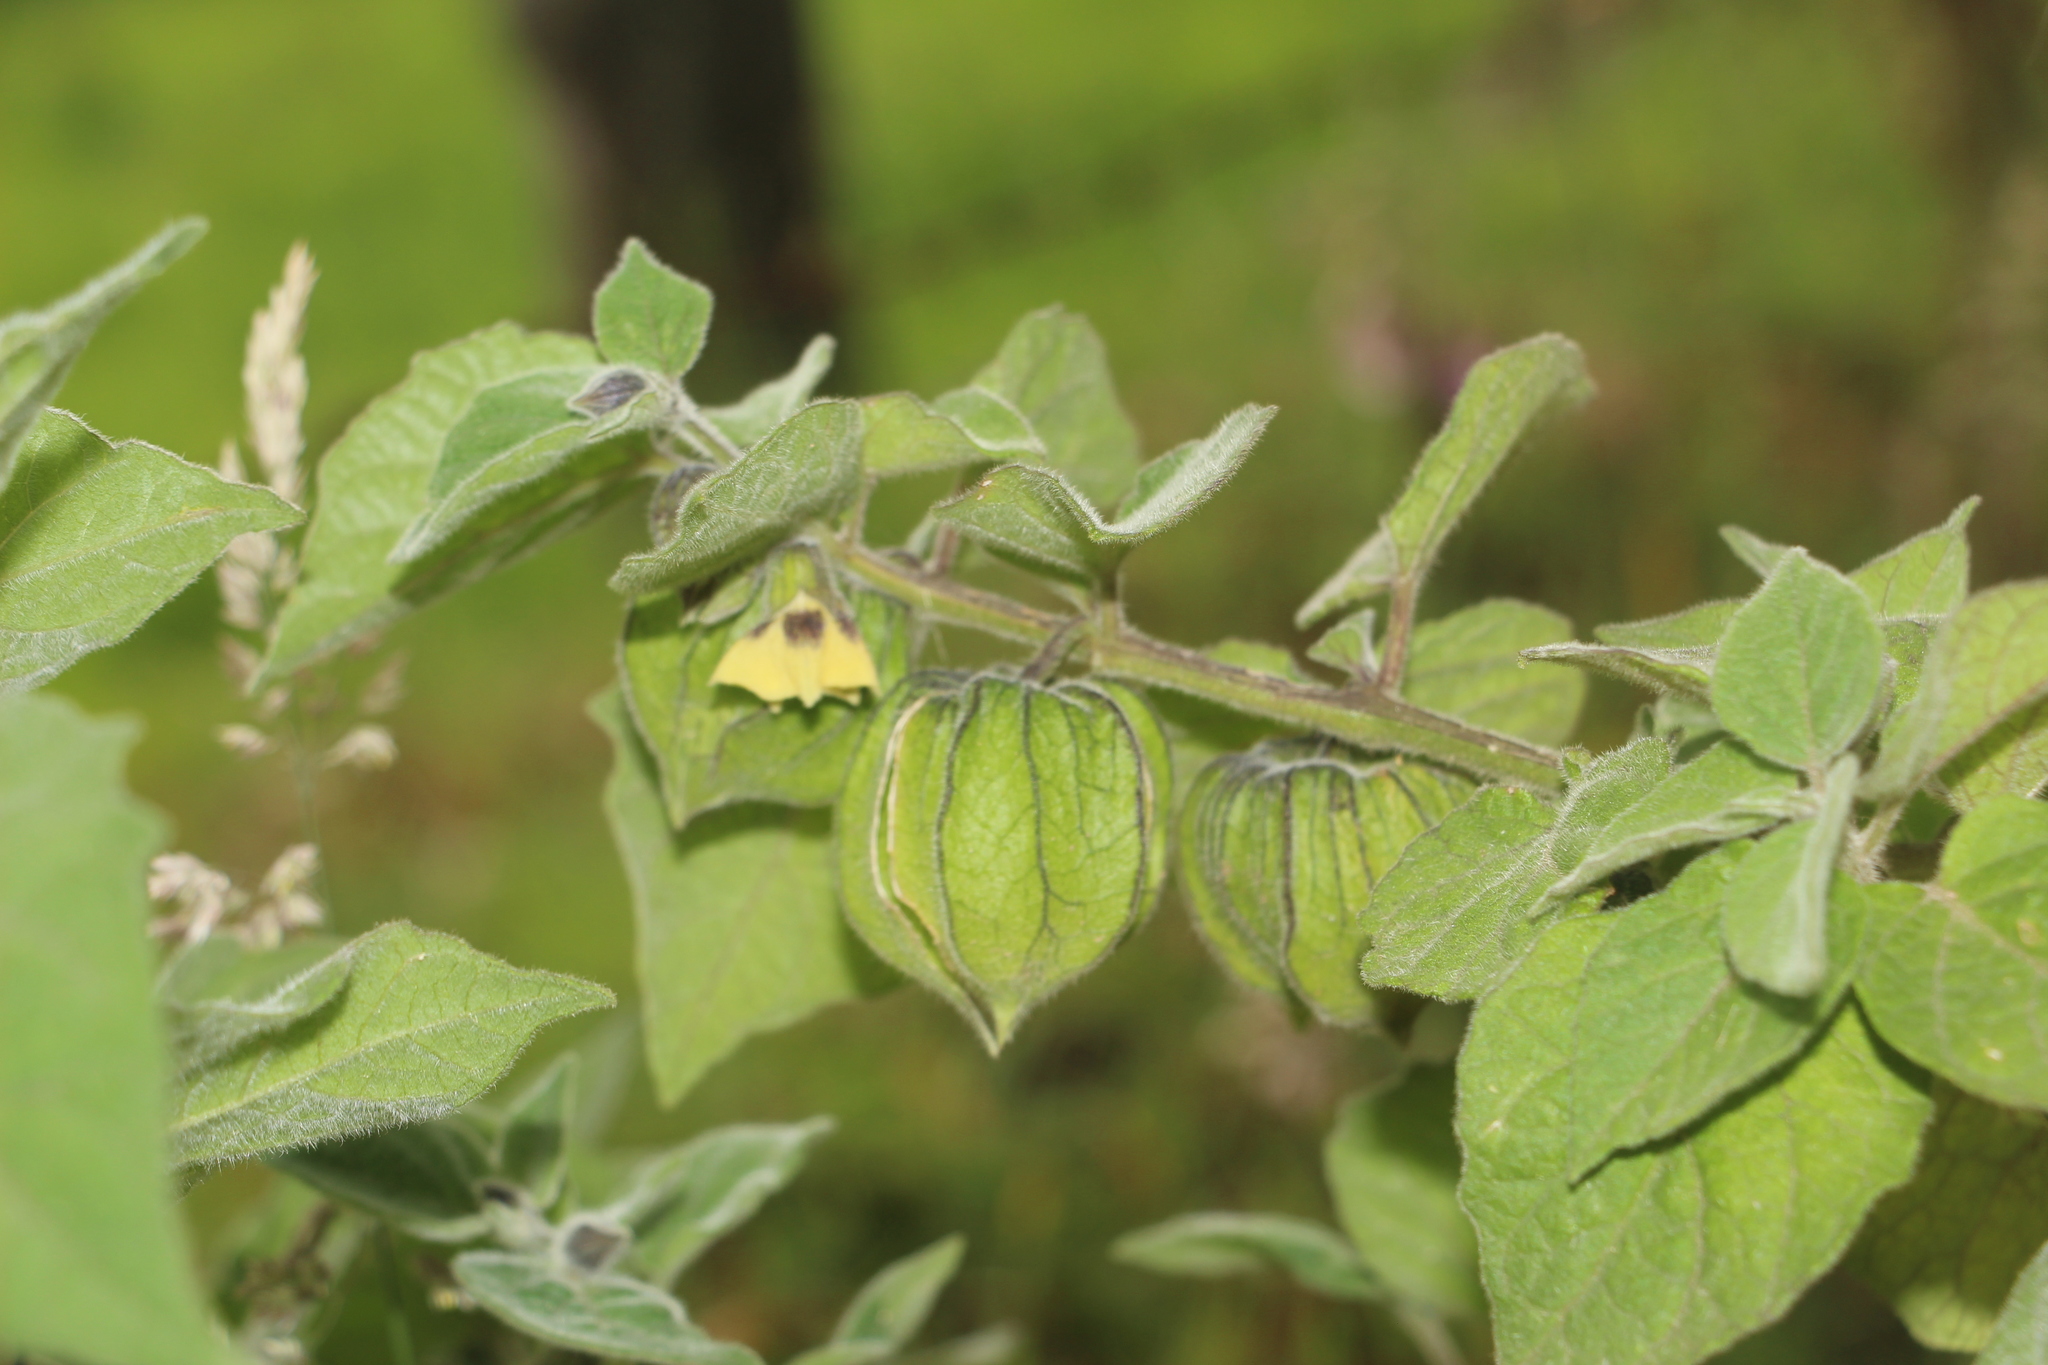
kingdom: Plantae
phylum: Tracheophyta
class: Magnoliopsida
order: Solanales
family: Solanaceae
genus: Physalis
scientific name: Physalis peruviana
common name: Cape-gooseberry
